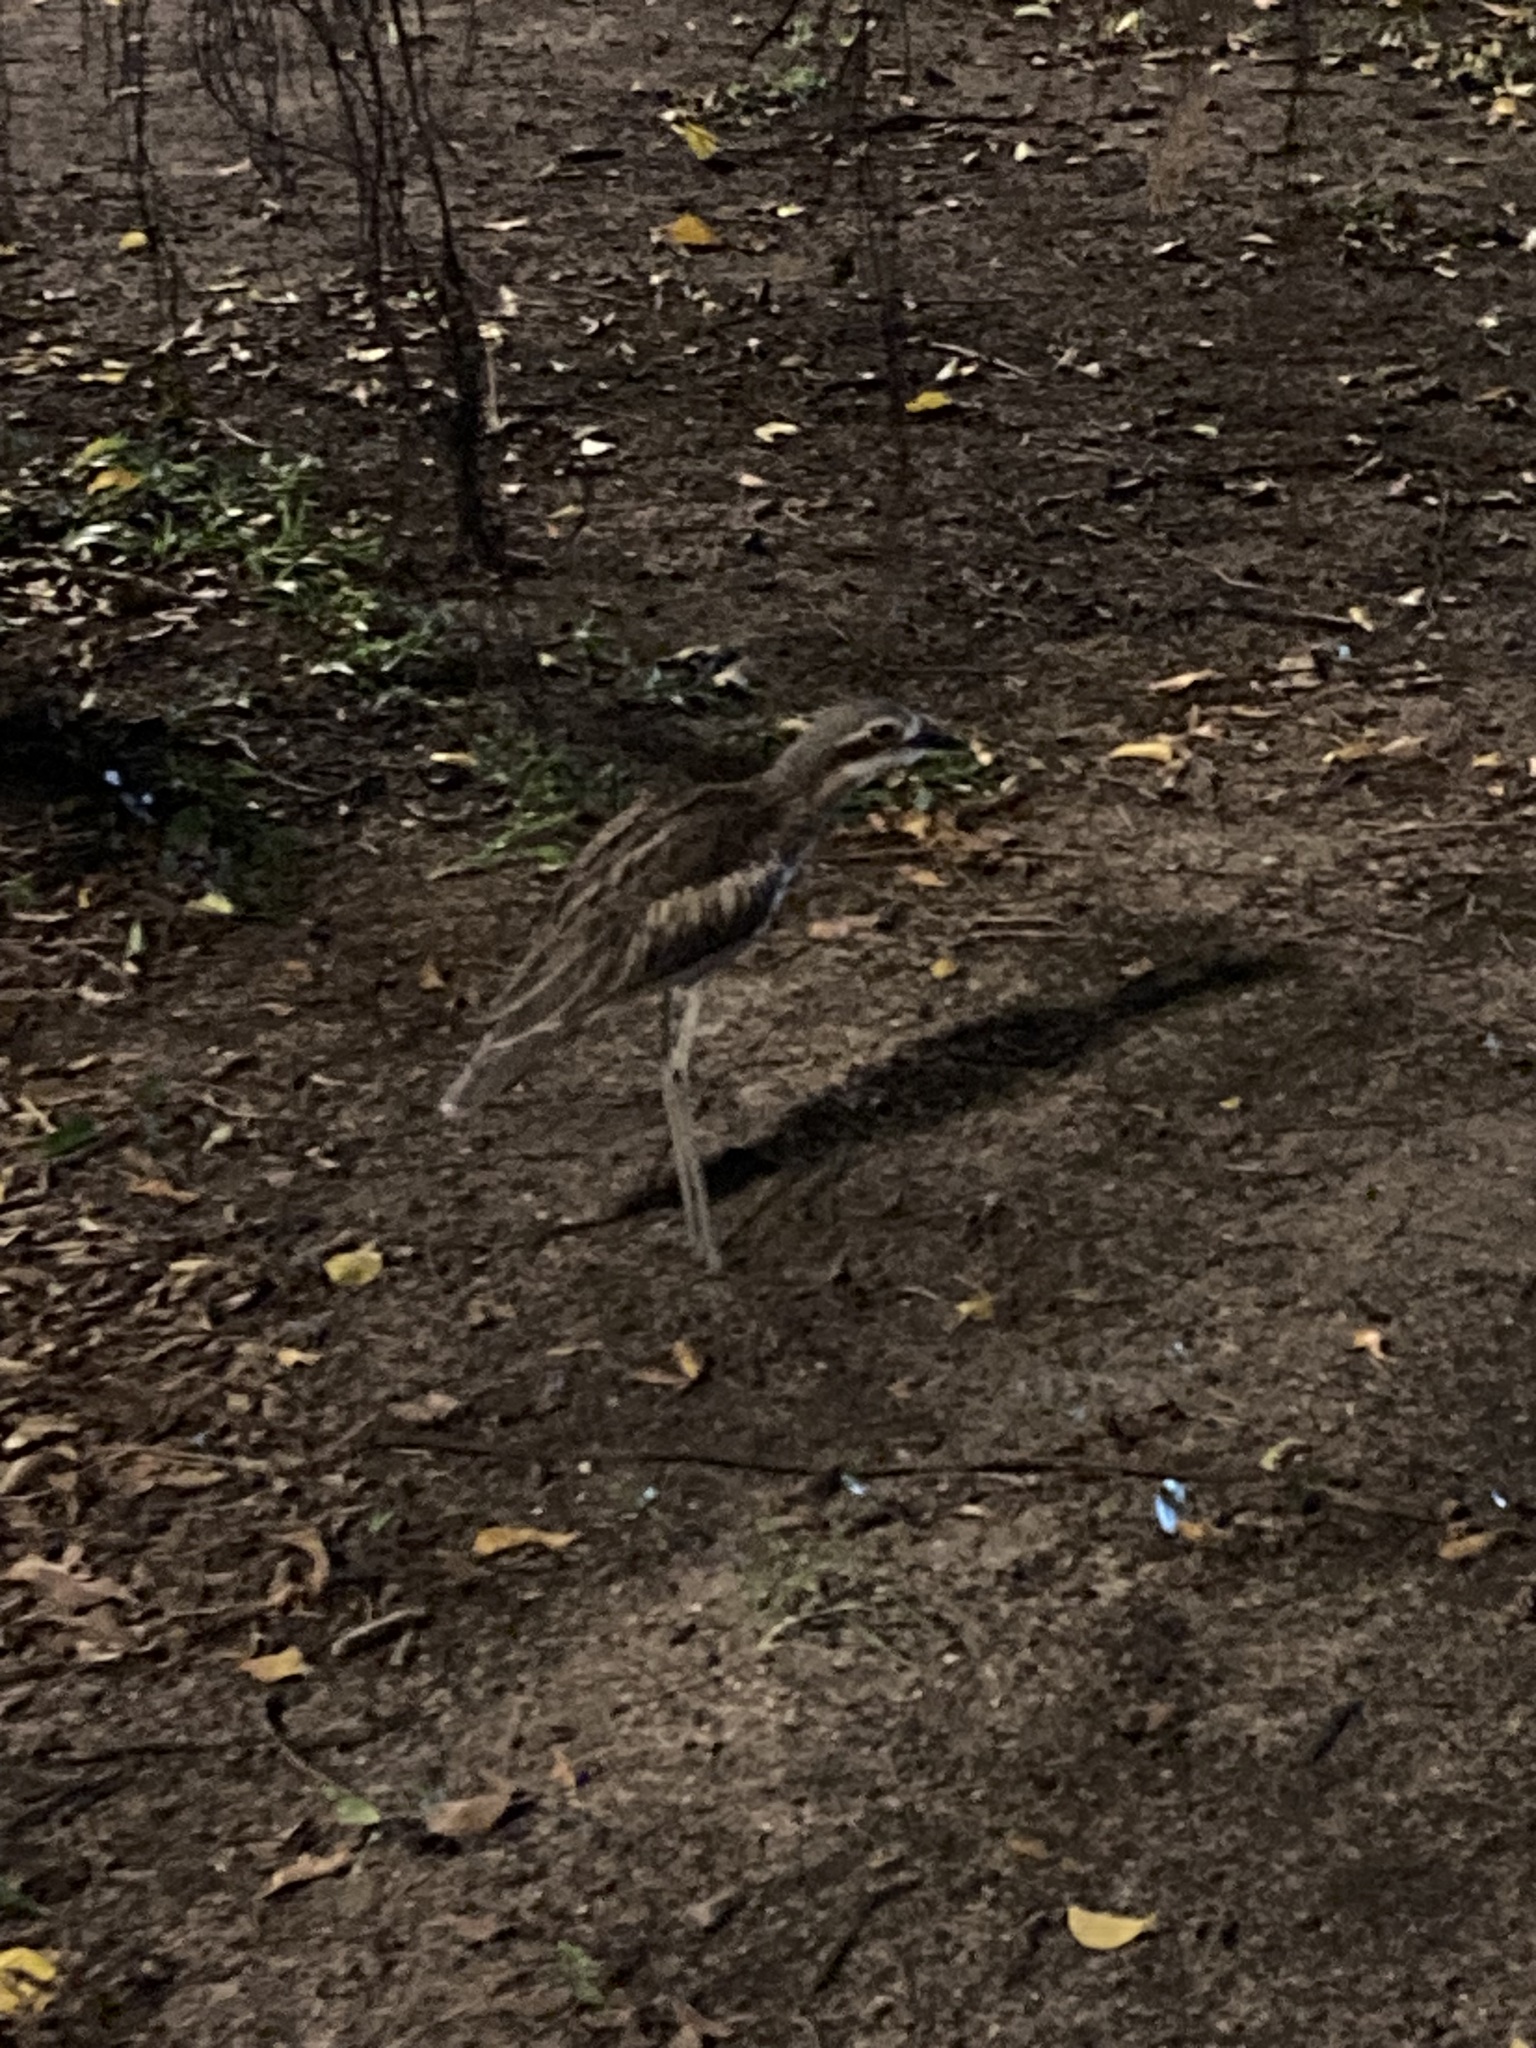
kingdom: Animalia
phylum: Chordata
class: Aves
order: Charadriiformes
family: Burhinidae
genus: Burhinus
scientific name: Burhinus grallarius
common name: Bush stone-curlew
